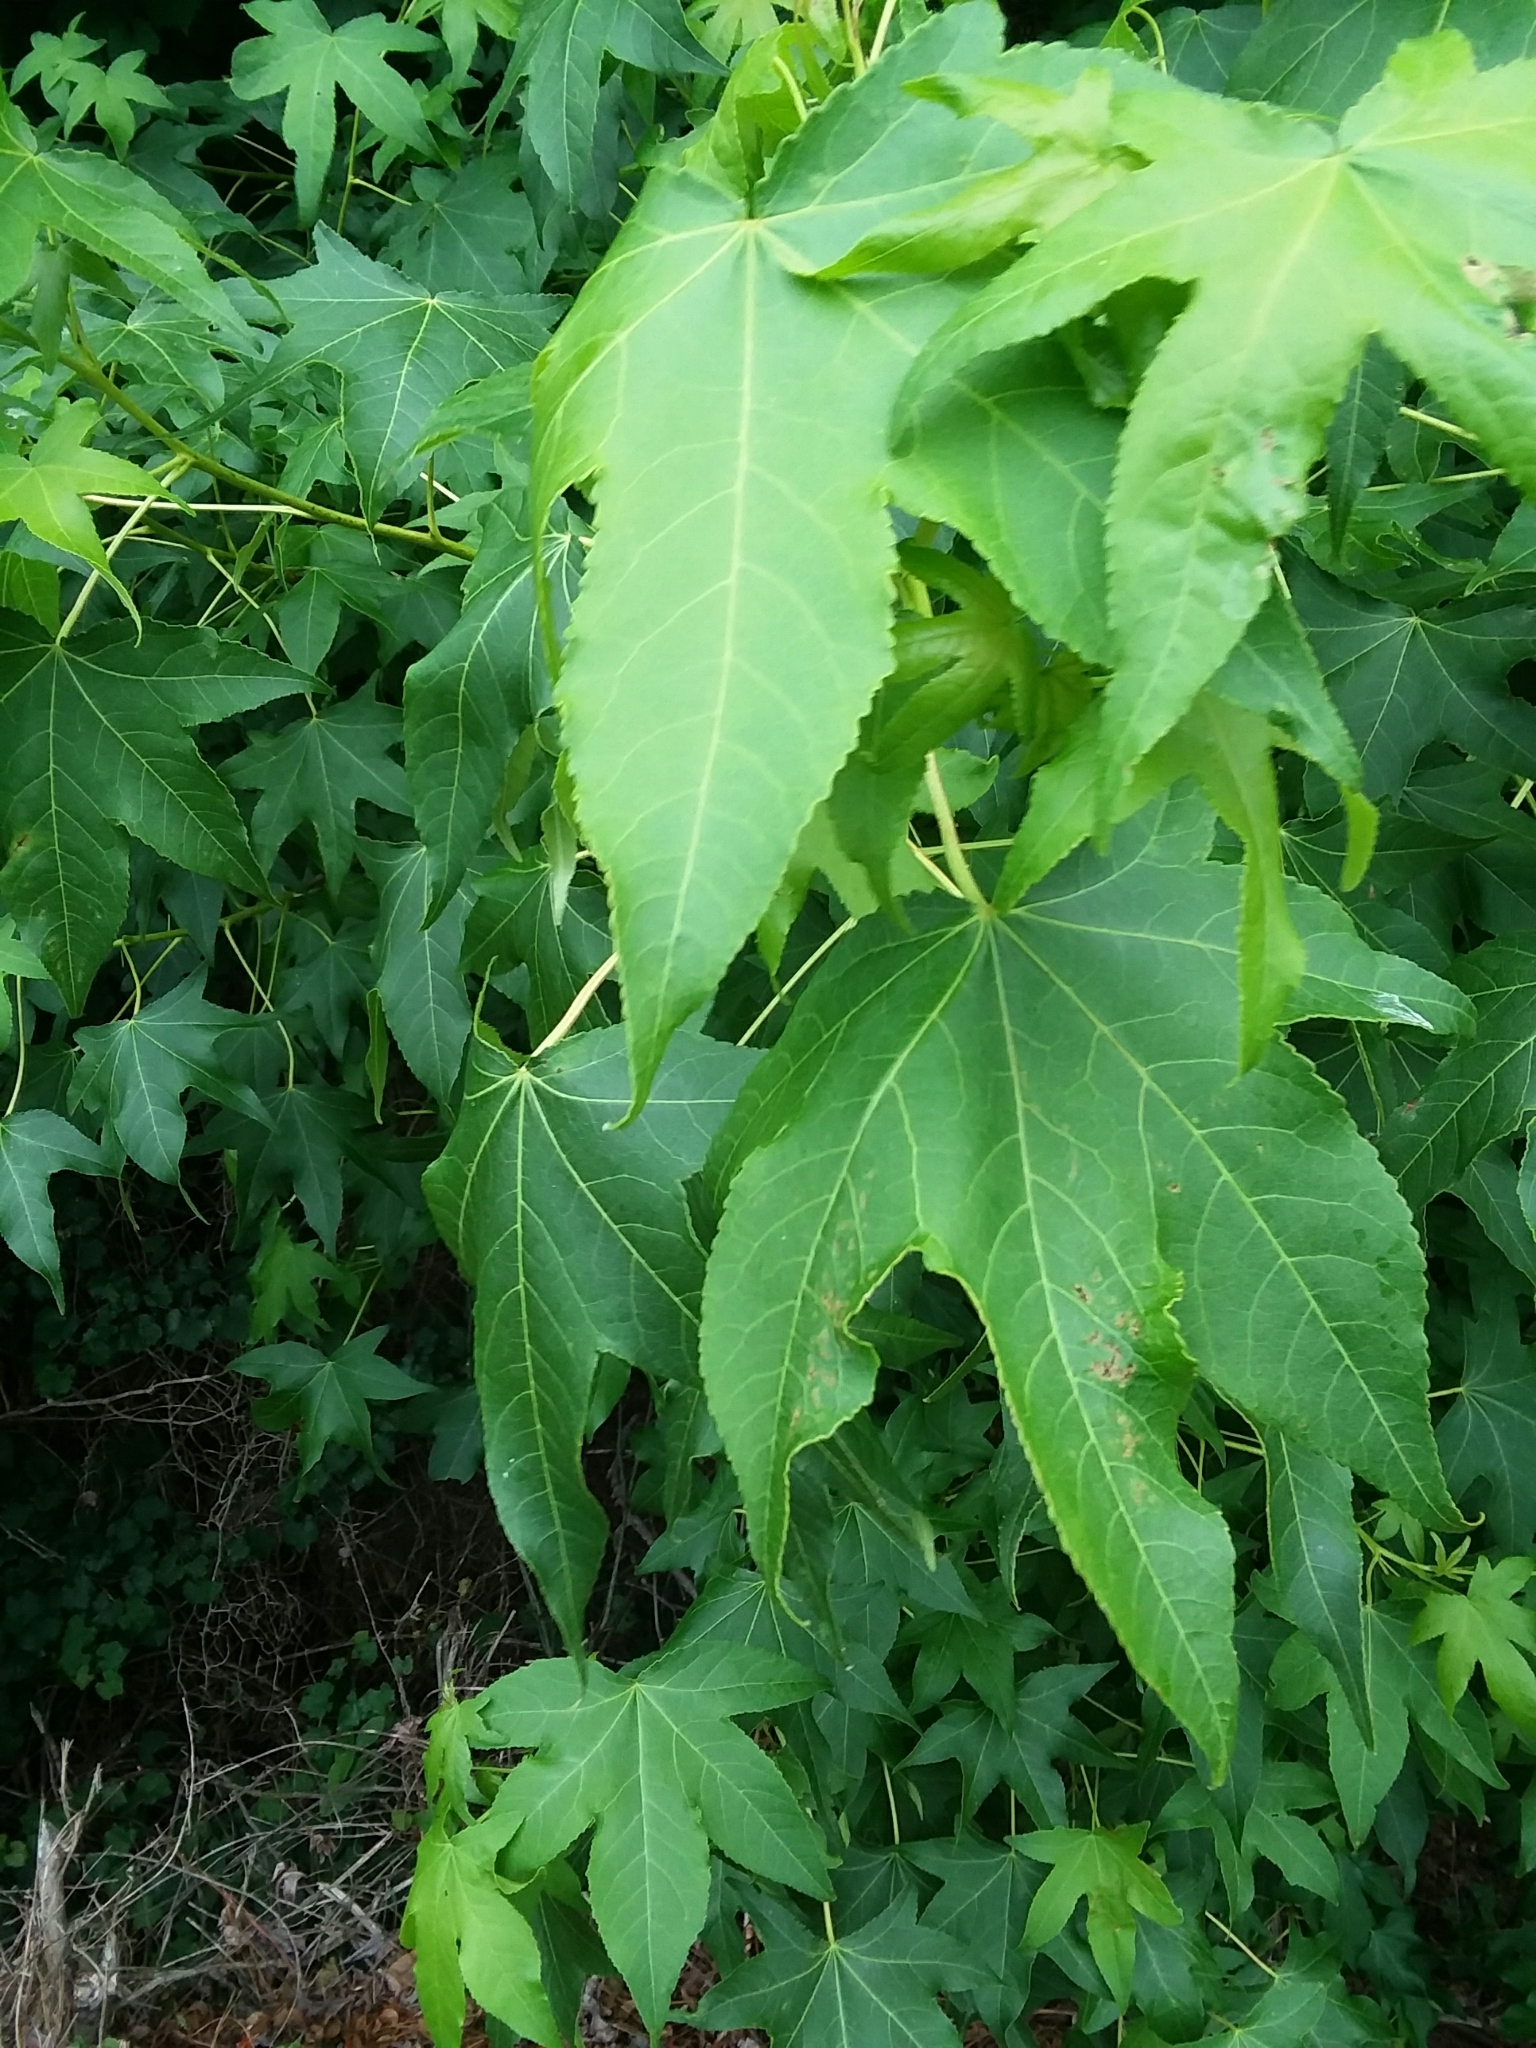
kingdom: Plantae
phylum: Tracheophyta
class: Magnoliopsida
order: Saxifragales
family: Altingiaceae
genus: Liquidambar
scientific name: Liquidambar styraciflua
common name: Sweet gum
